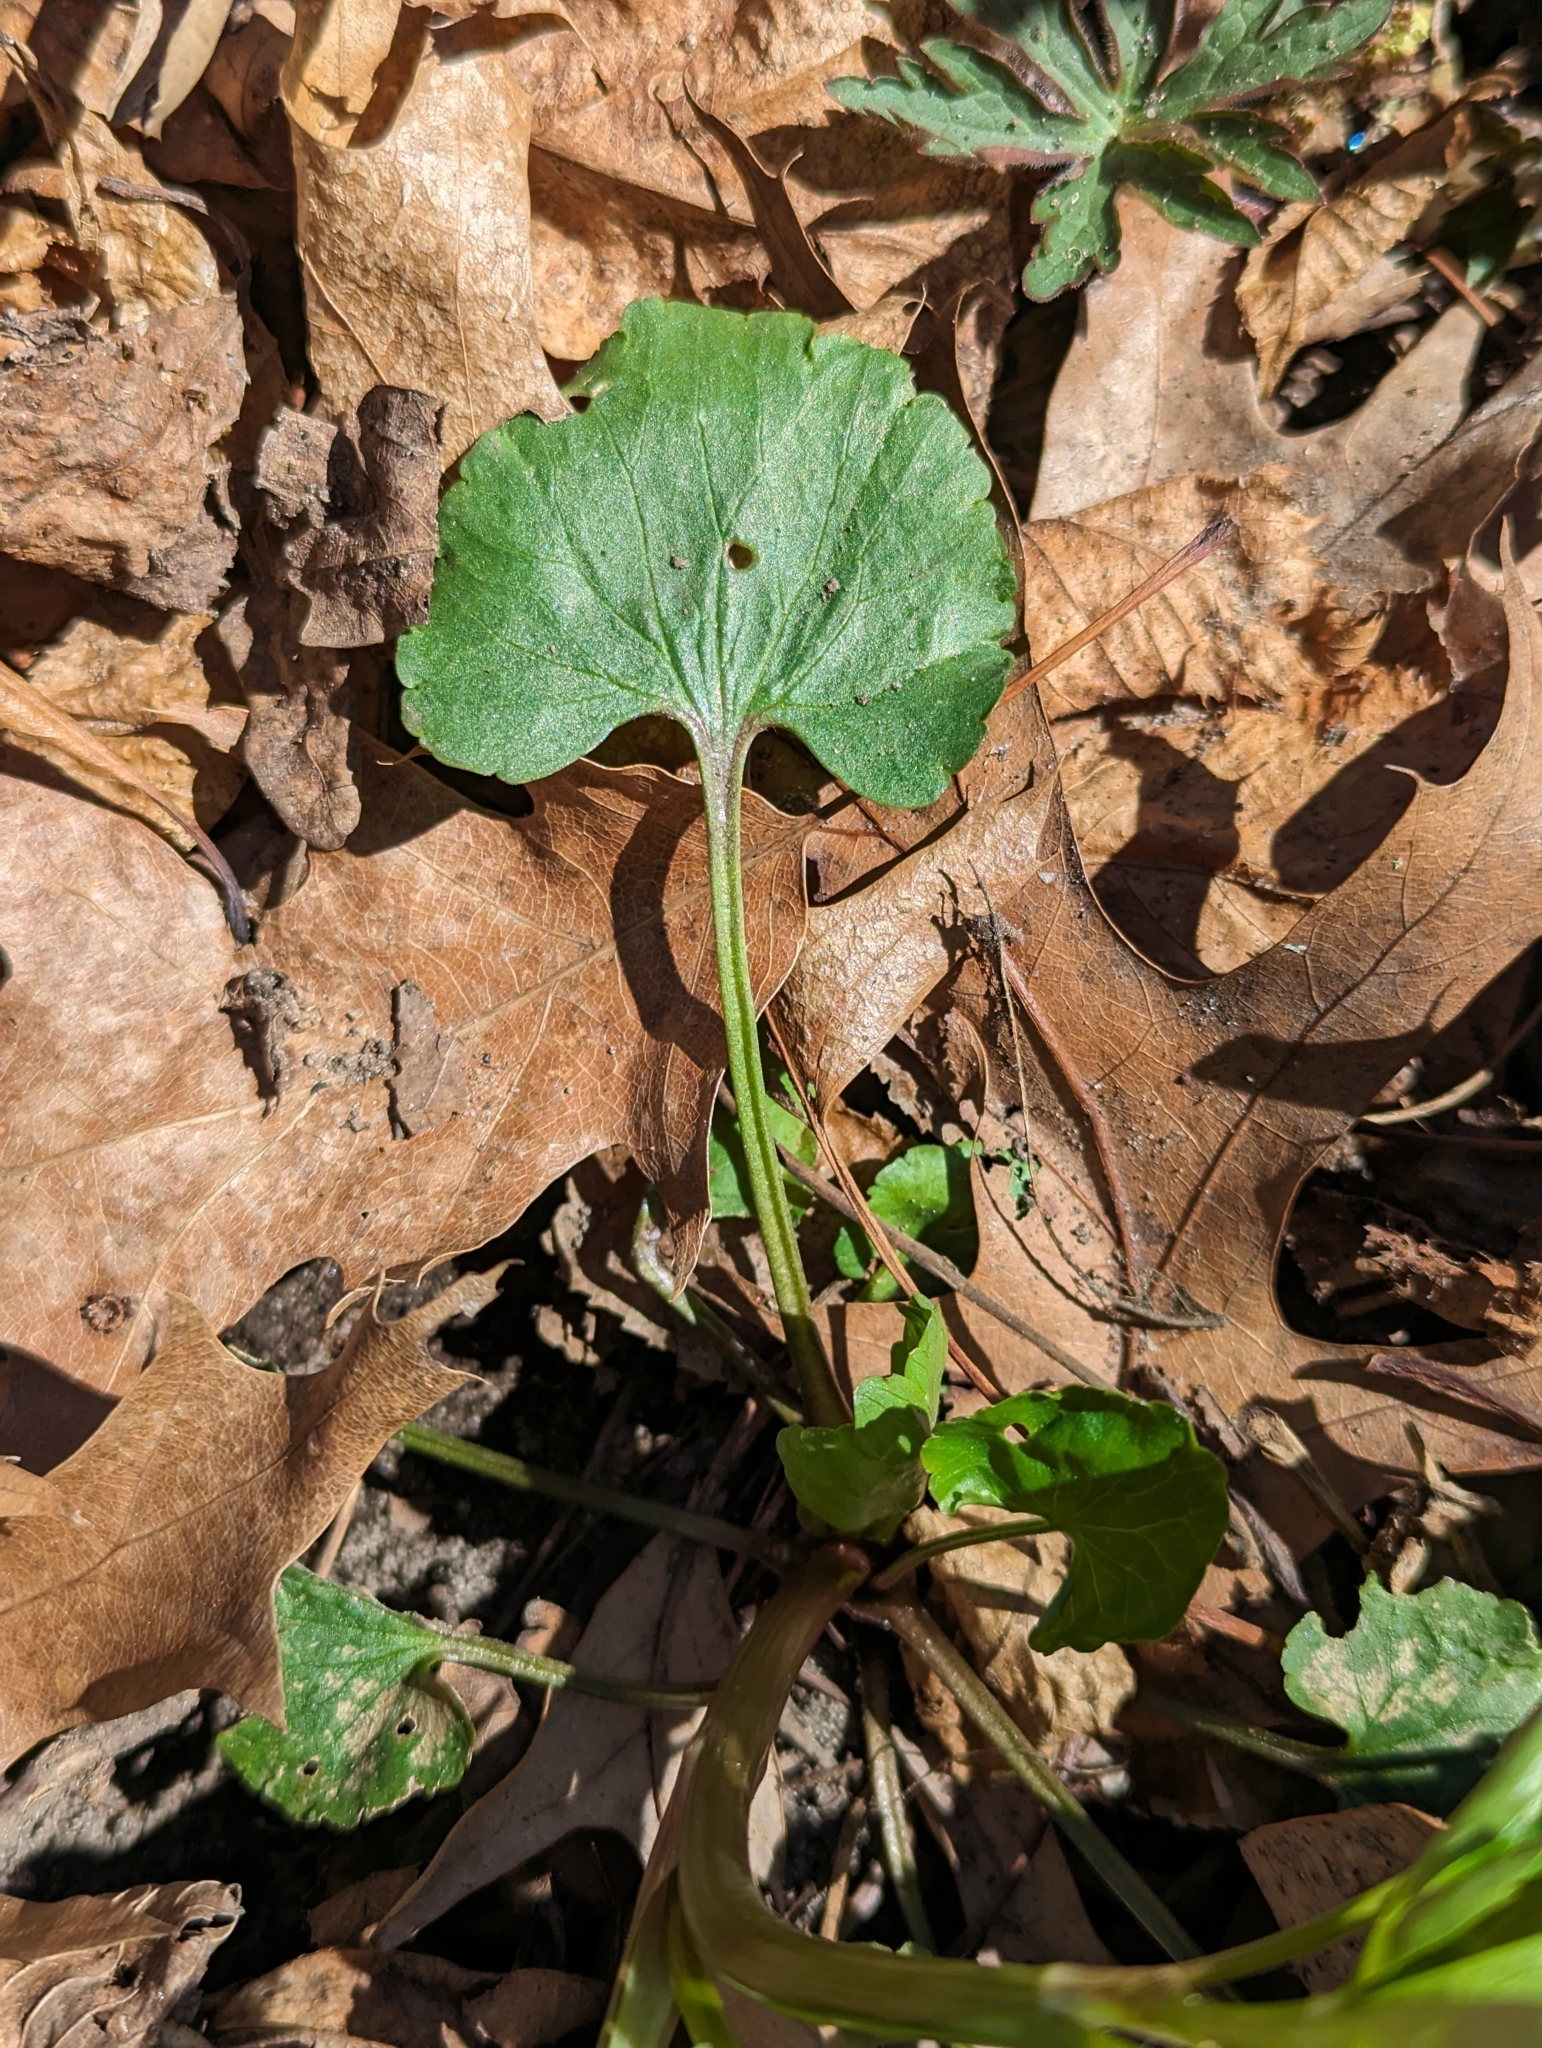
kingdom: Plantae
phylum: Tracheophyta
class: Magnoliopsida
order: Ranunculales
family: Ranunculaceae
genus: Ranunculus
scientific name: Ranunculus abortivus
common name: Early wood buttercup
